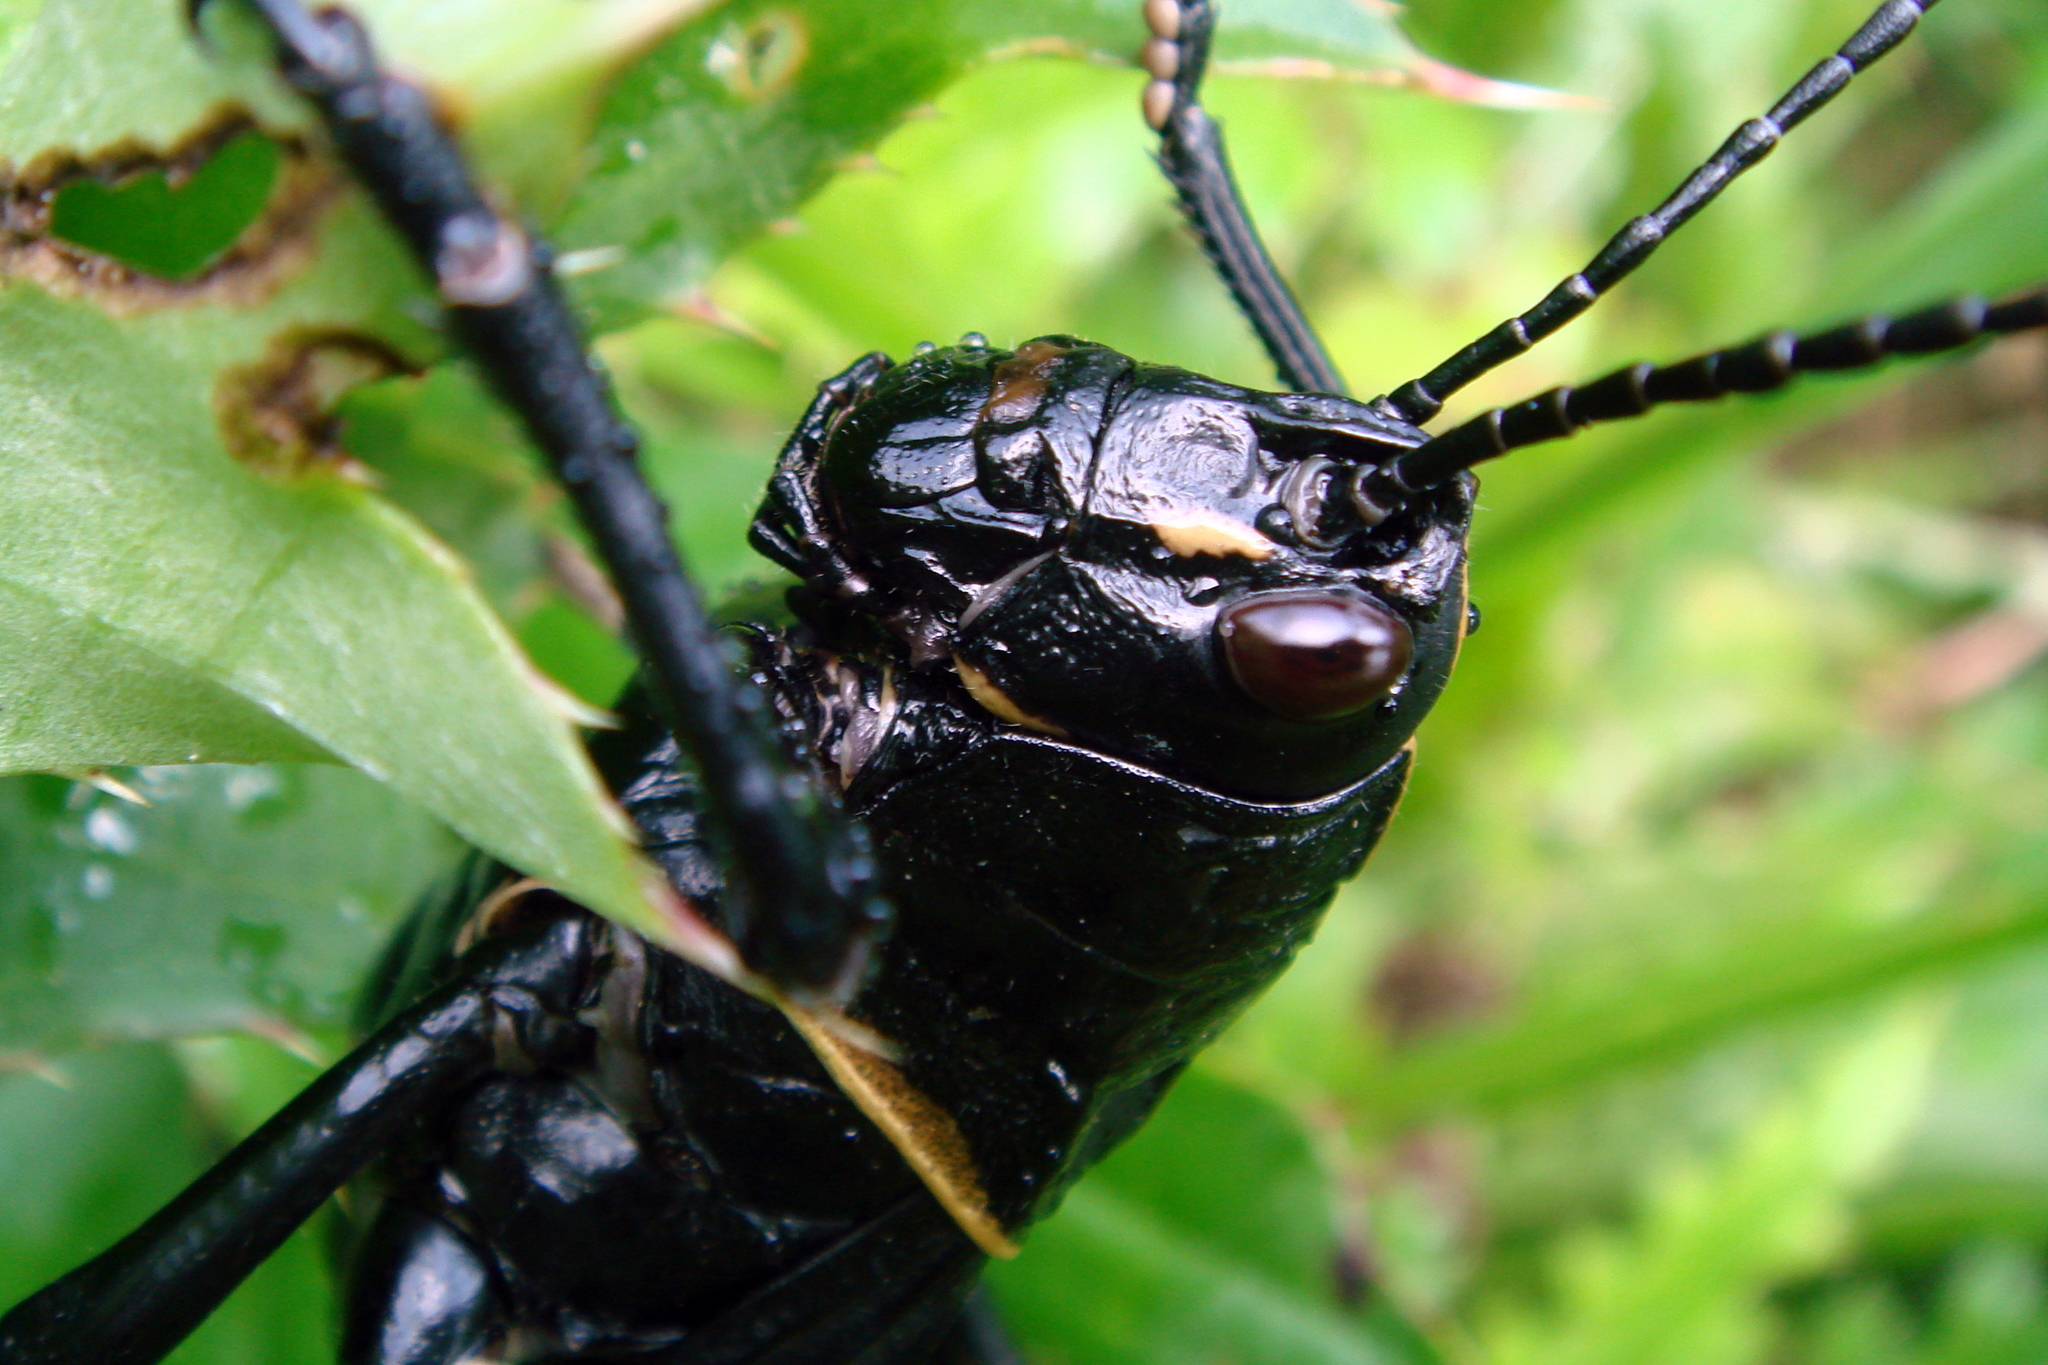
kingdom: Animalia
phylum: Arthropoda
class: Insecta
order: Orthoptera
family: Romaleidae
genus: Romalea
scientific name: Romalea microptera
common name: Eastern lubber grasshopper
